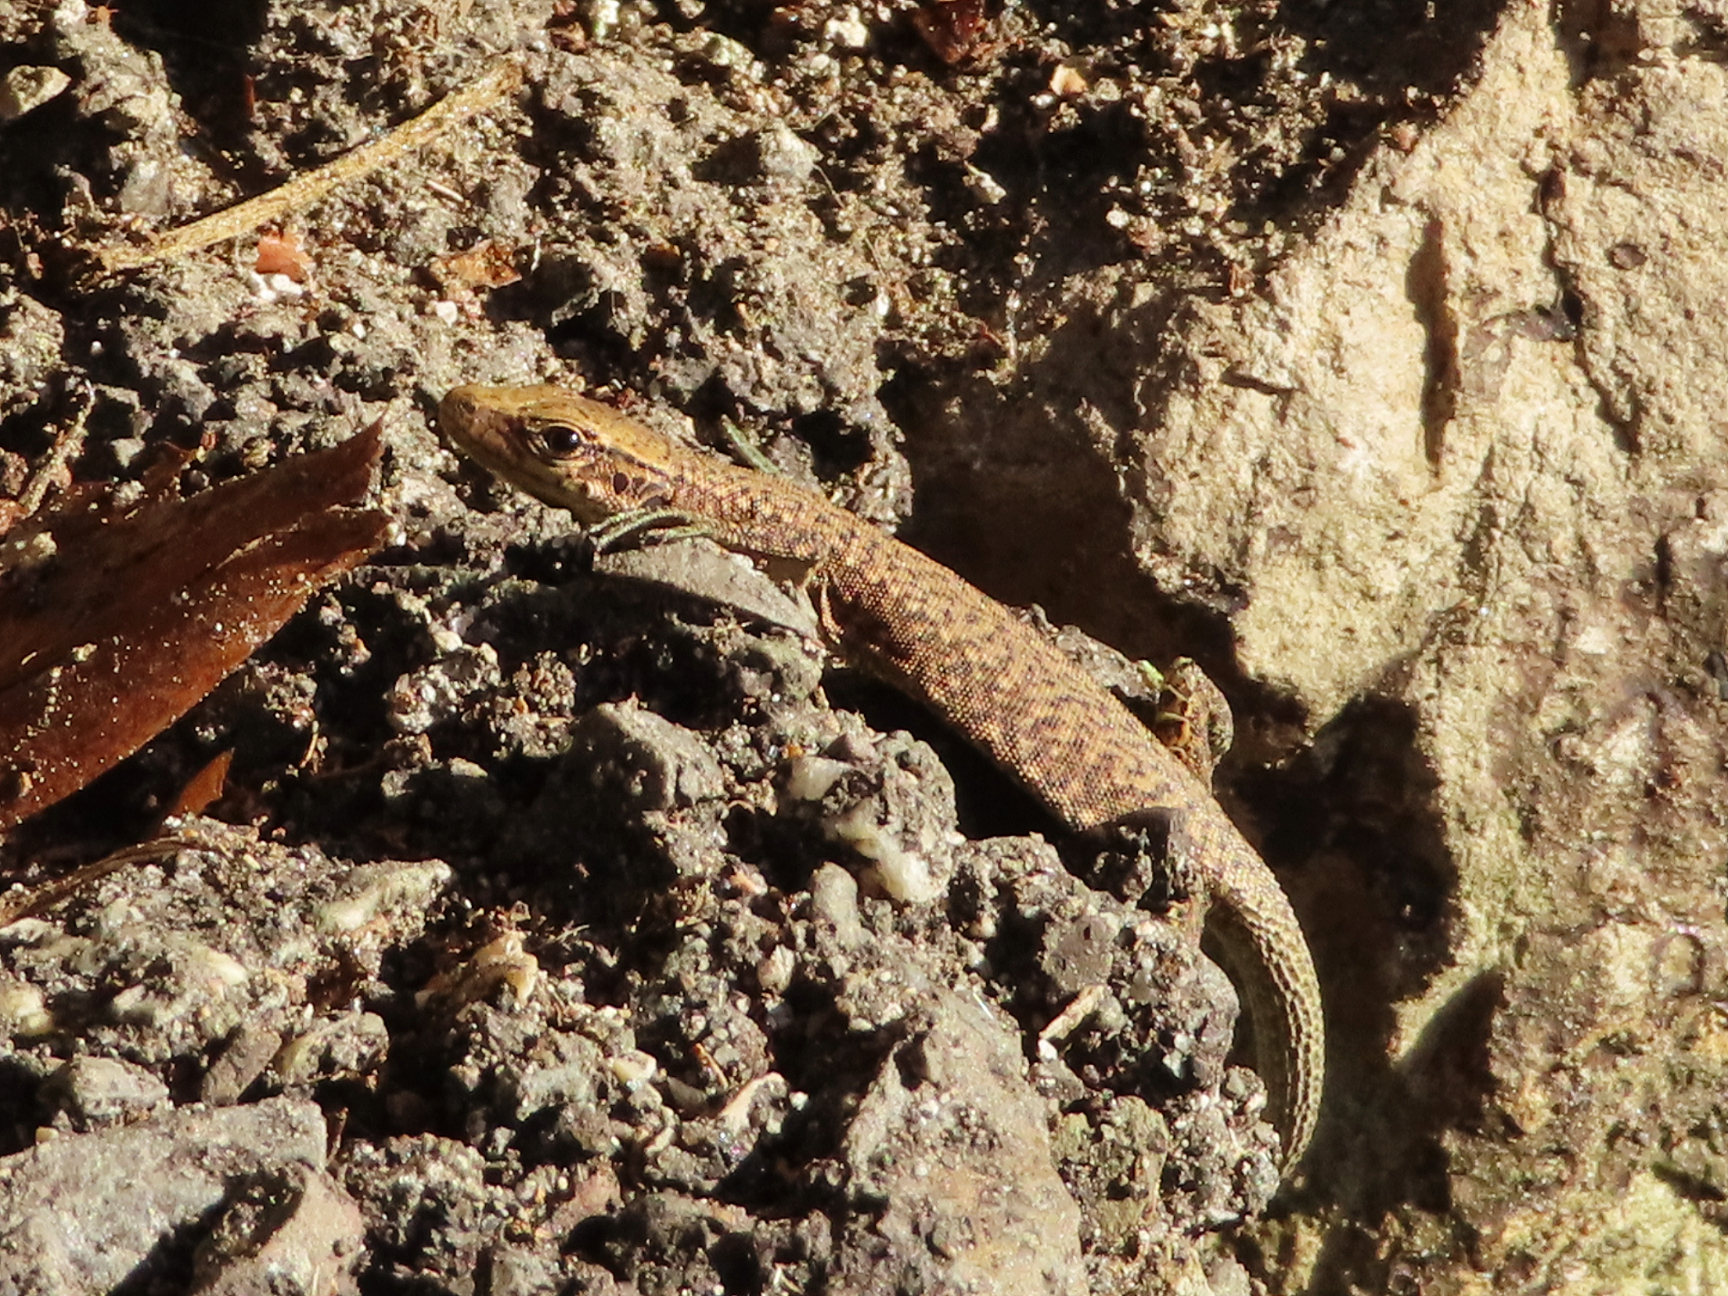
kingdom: Animalia
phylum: Chordata
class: Squamata
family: Lacertidae
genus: Darevskia
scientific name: Darevskia mixta
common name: Ajarian lizard
